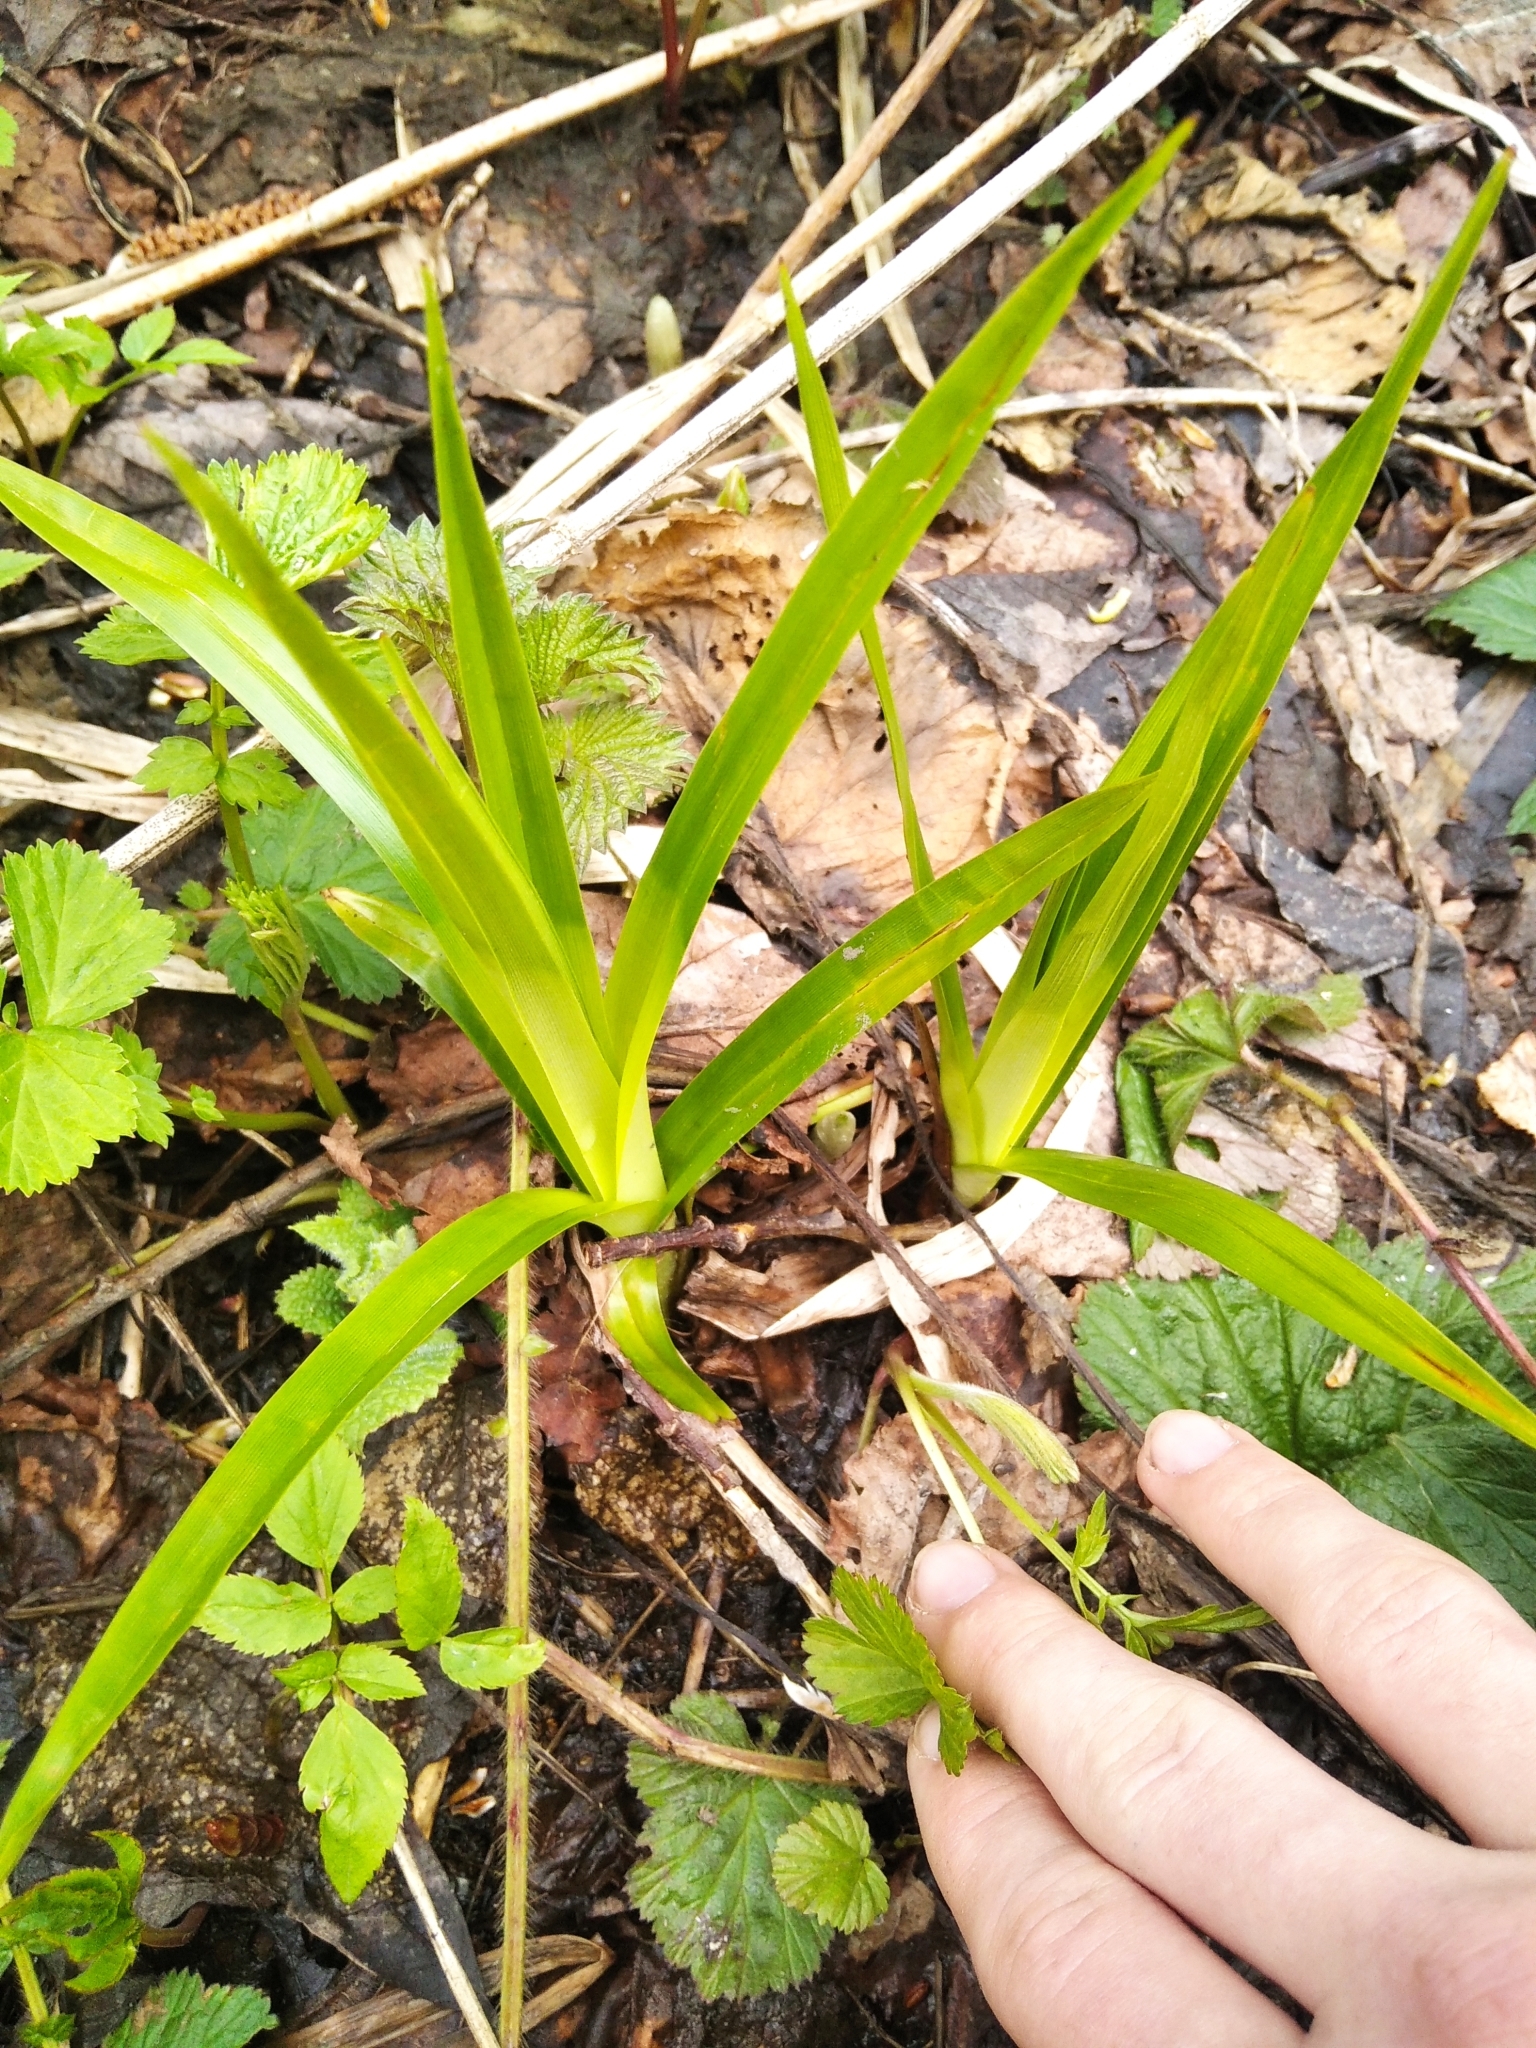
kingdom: Plantae
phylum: Tracheophyta
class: Liliopsida
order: Poales
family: Cyperaceae
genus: Scirpus
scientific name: Scirpus sylvaticus
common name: Wood club-rush
